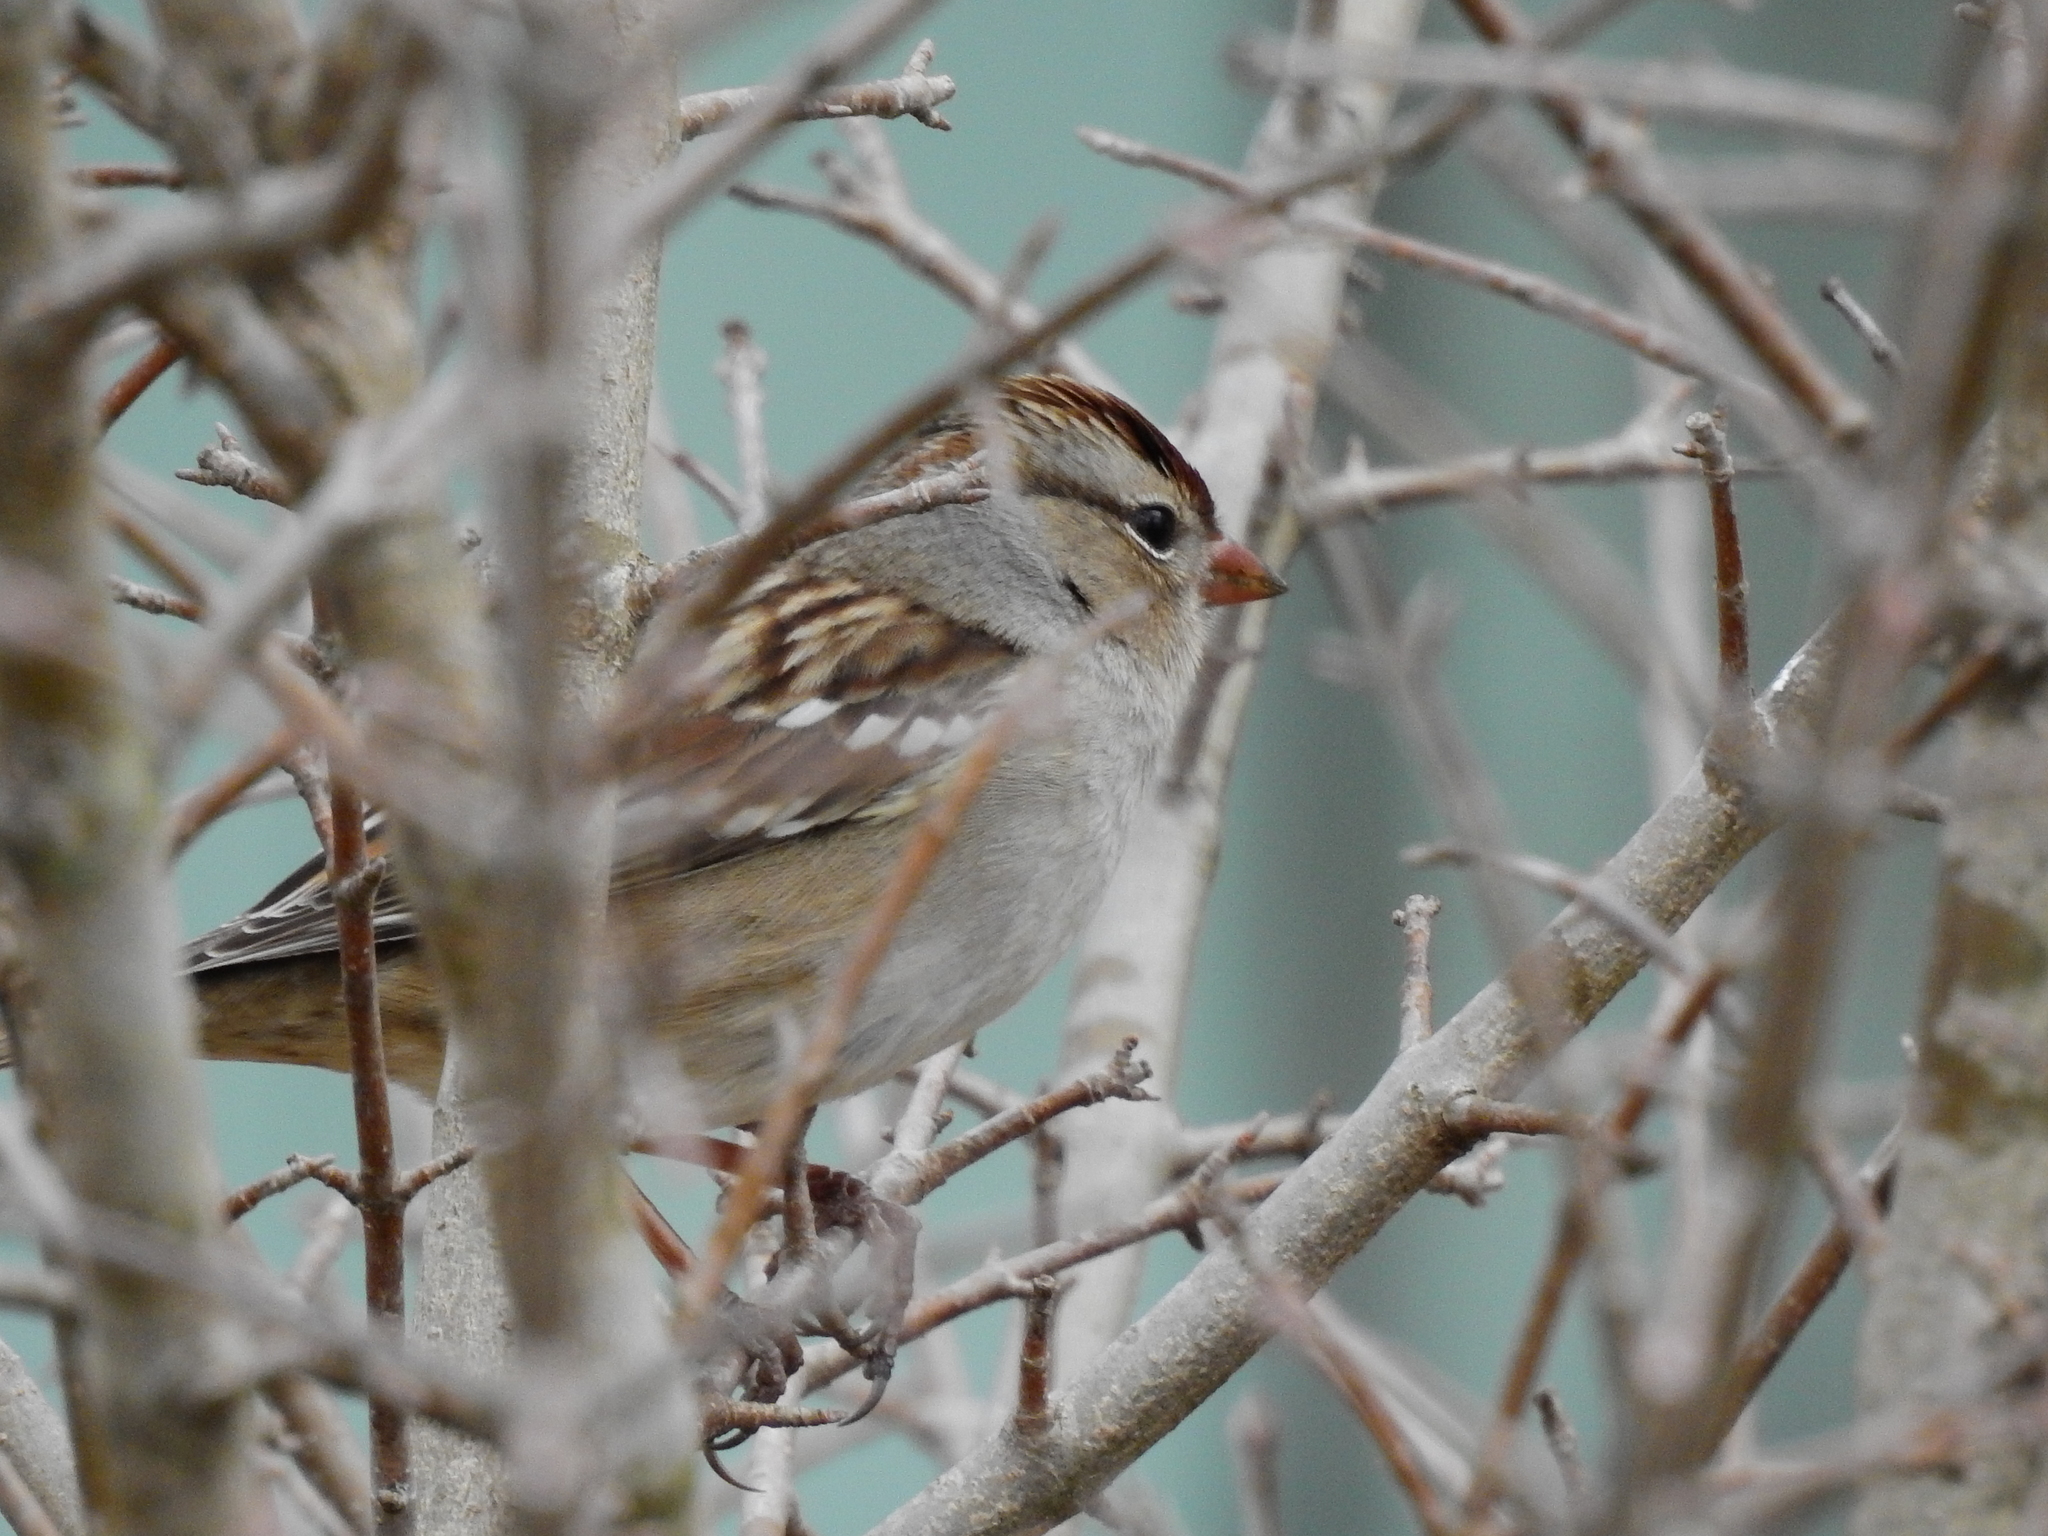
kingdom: Animalia
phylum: Chordata
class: Aves
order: Passeriformes
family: Passerellidae
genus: Zonotrichia
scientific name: Zonotrichia leucophrys
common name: White-crowned sparrow
